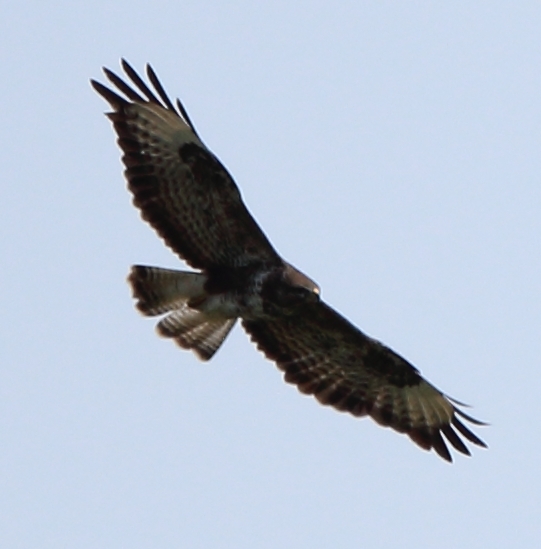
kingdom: Animalia
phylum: Chordata
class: Aves
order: Accipitriformes
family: Accipitridae
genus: Buteo
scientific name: Buteo buteo
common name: Common buzzard
